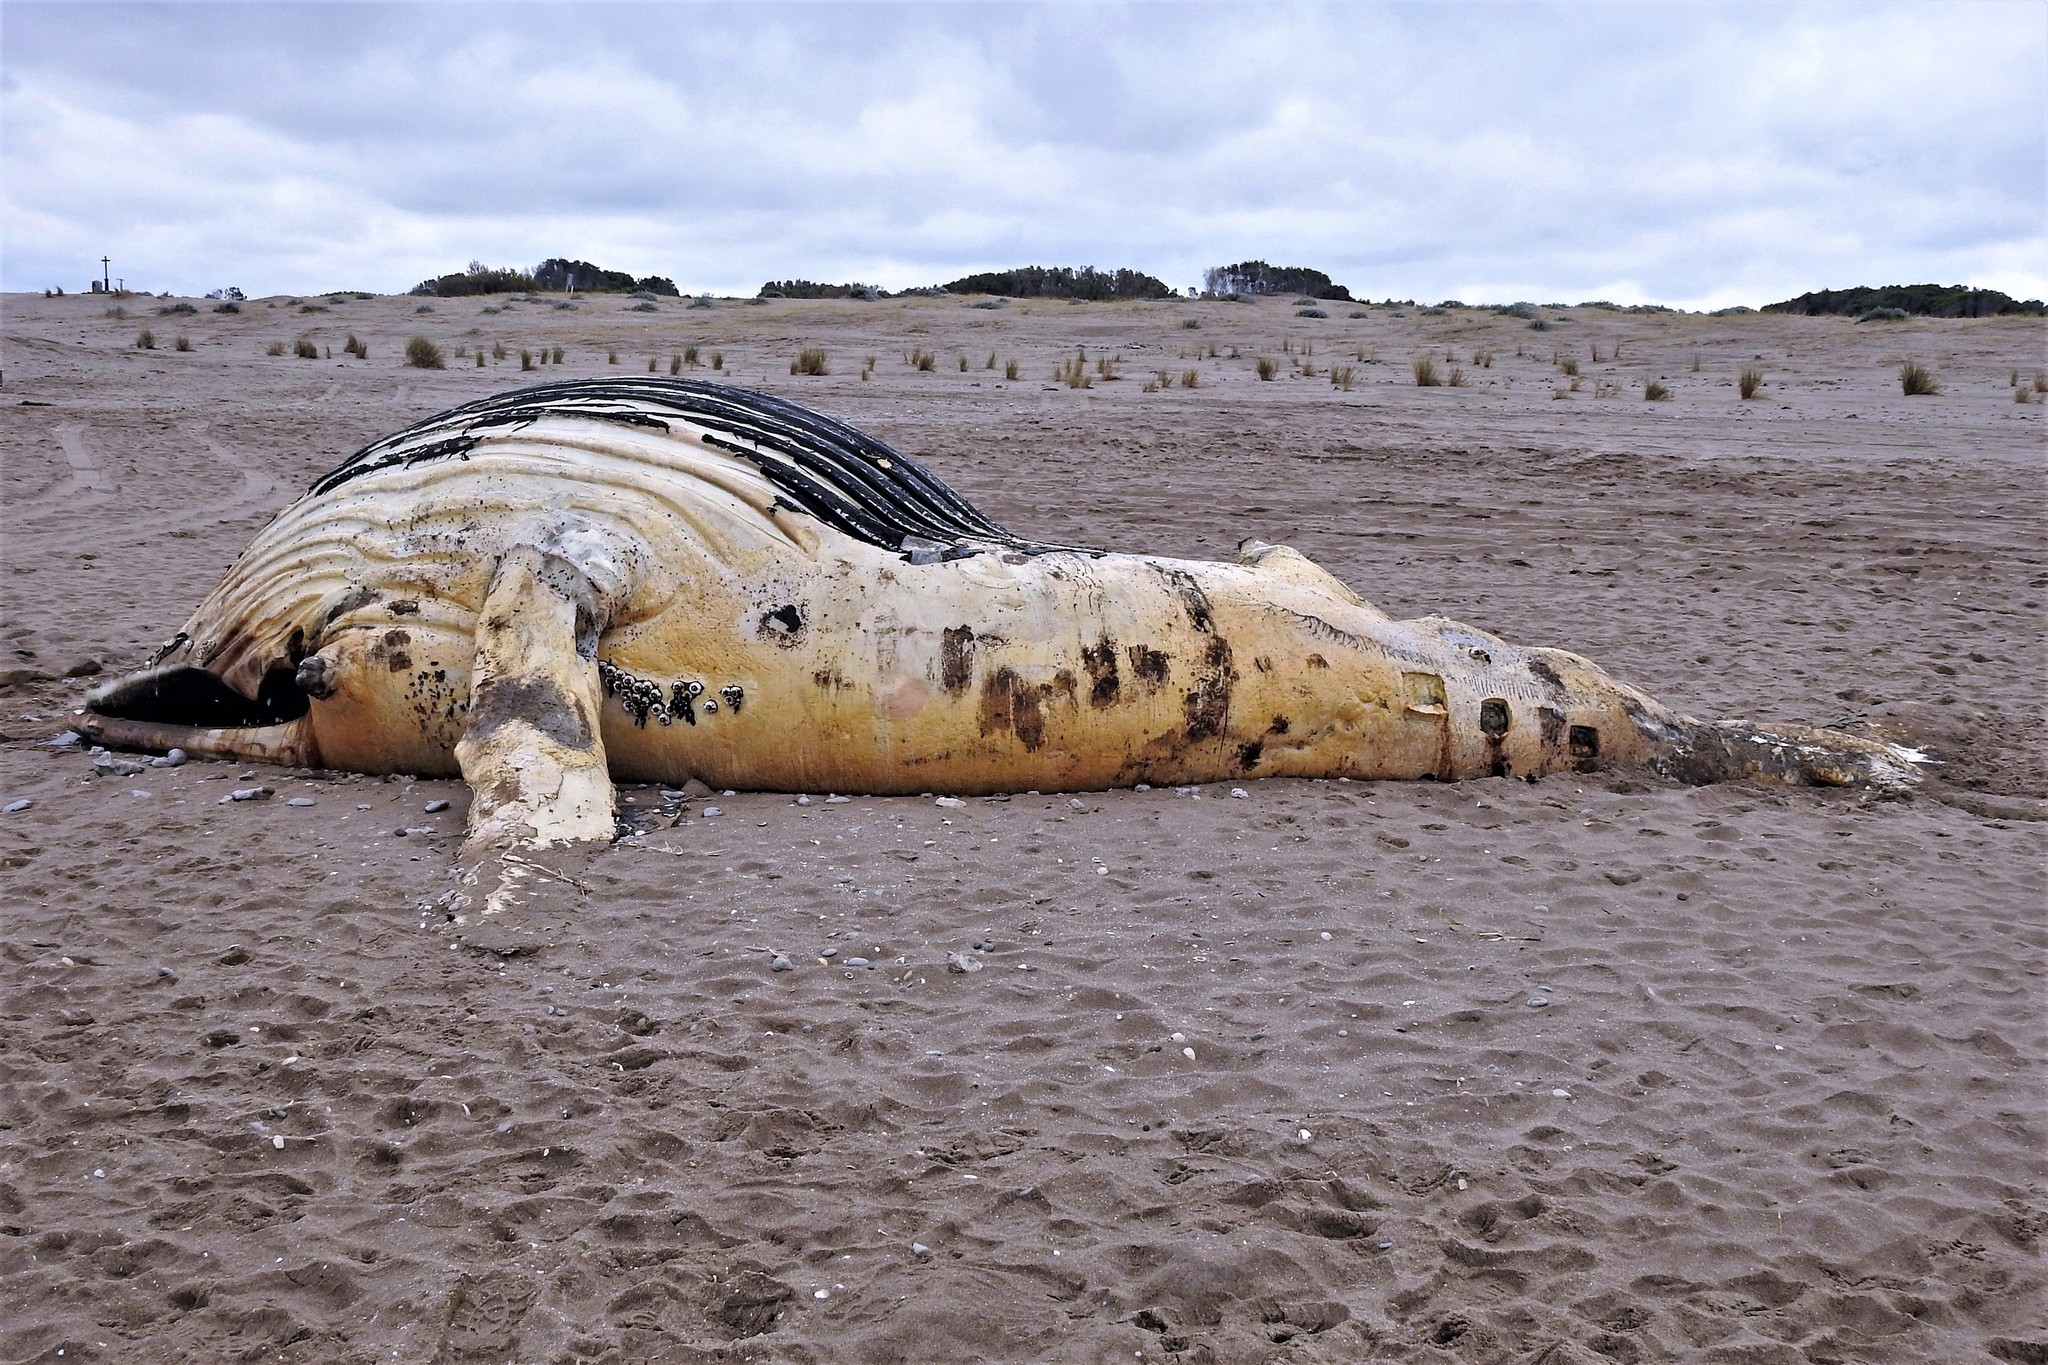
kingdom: Animalia
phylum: Chordata
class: Mammalia
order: Cetacea
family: Balaenopteridae
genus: Megaptera
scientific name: Megaptera novaeangliae
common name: Humpback whale
